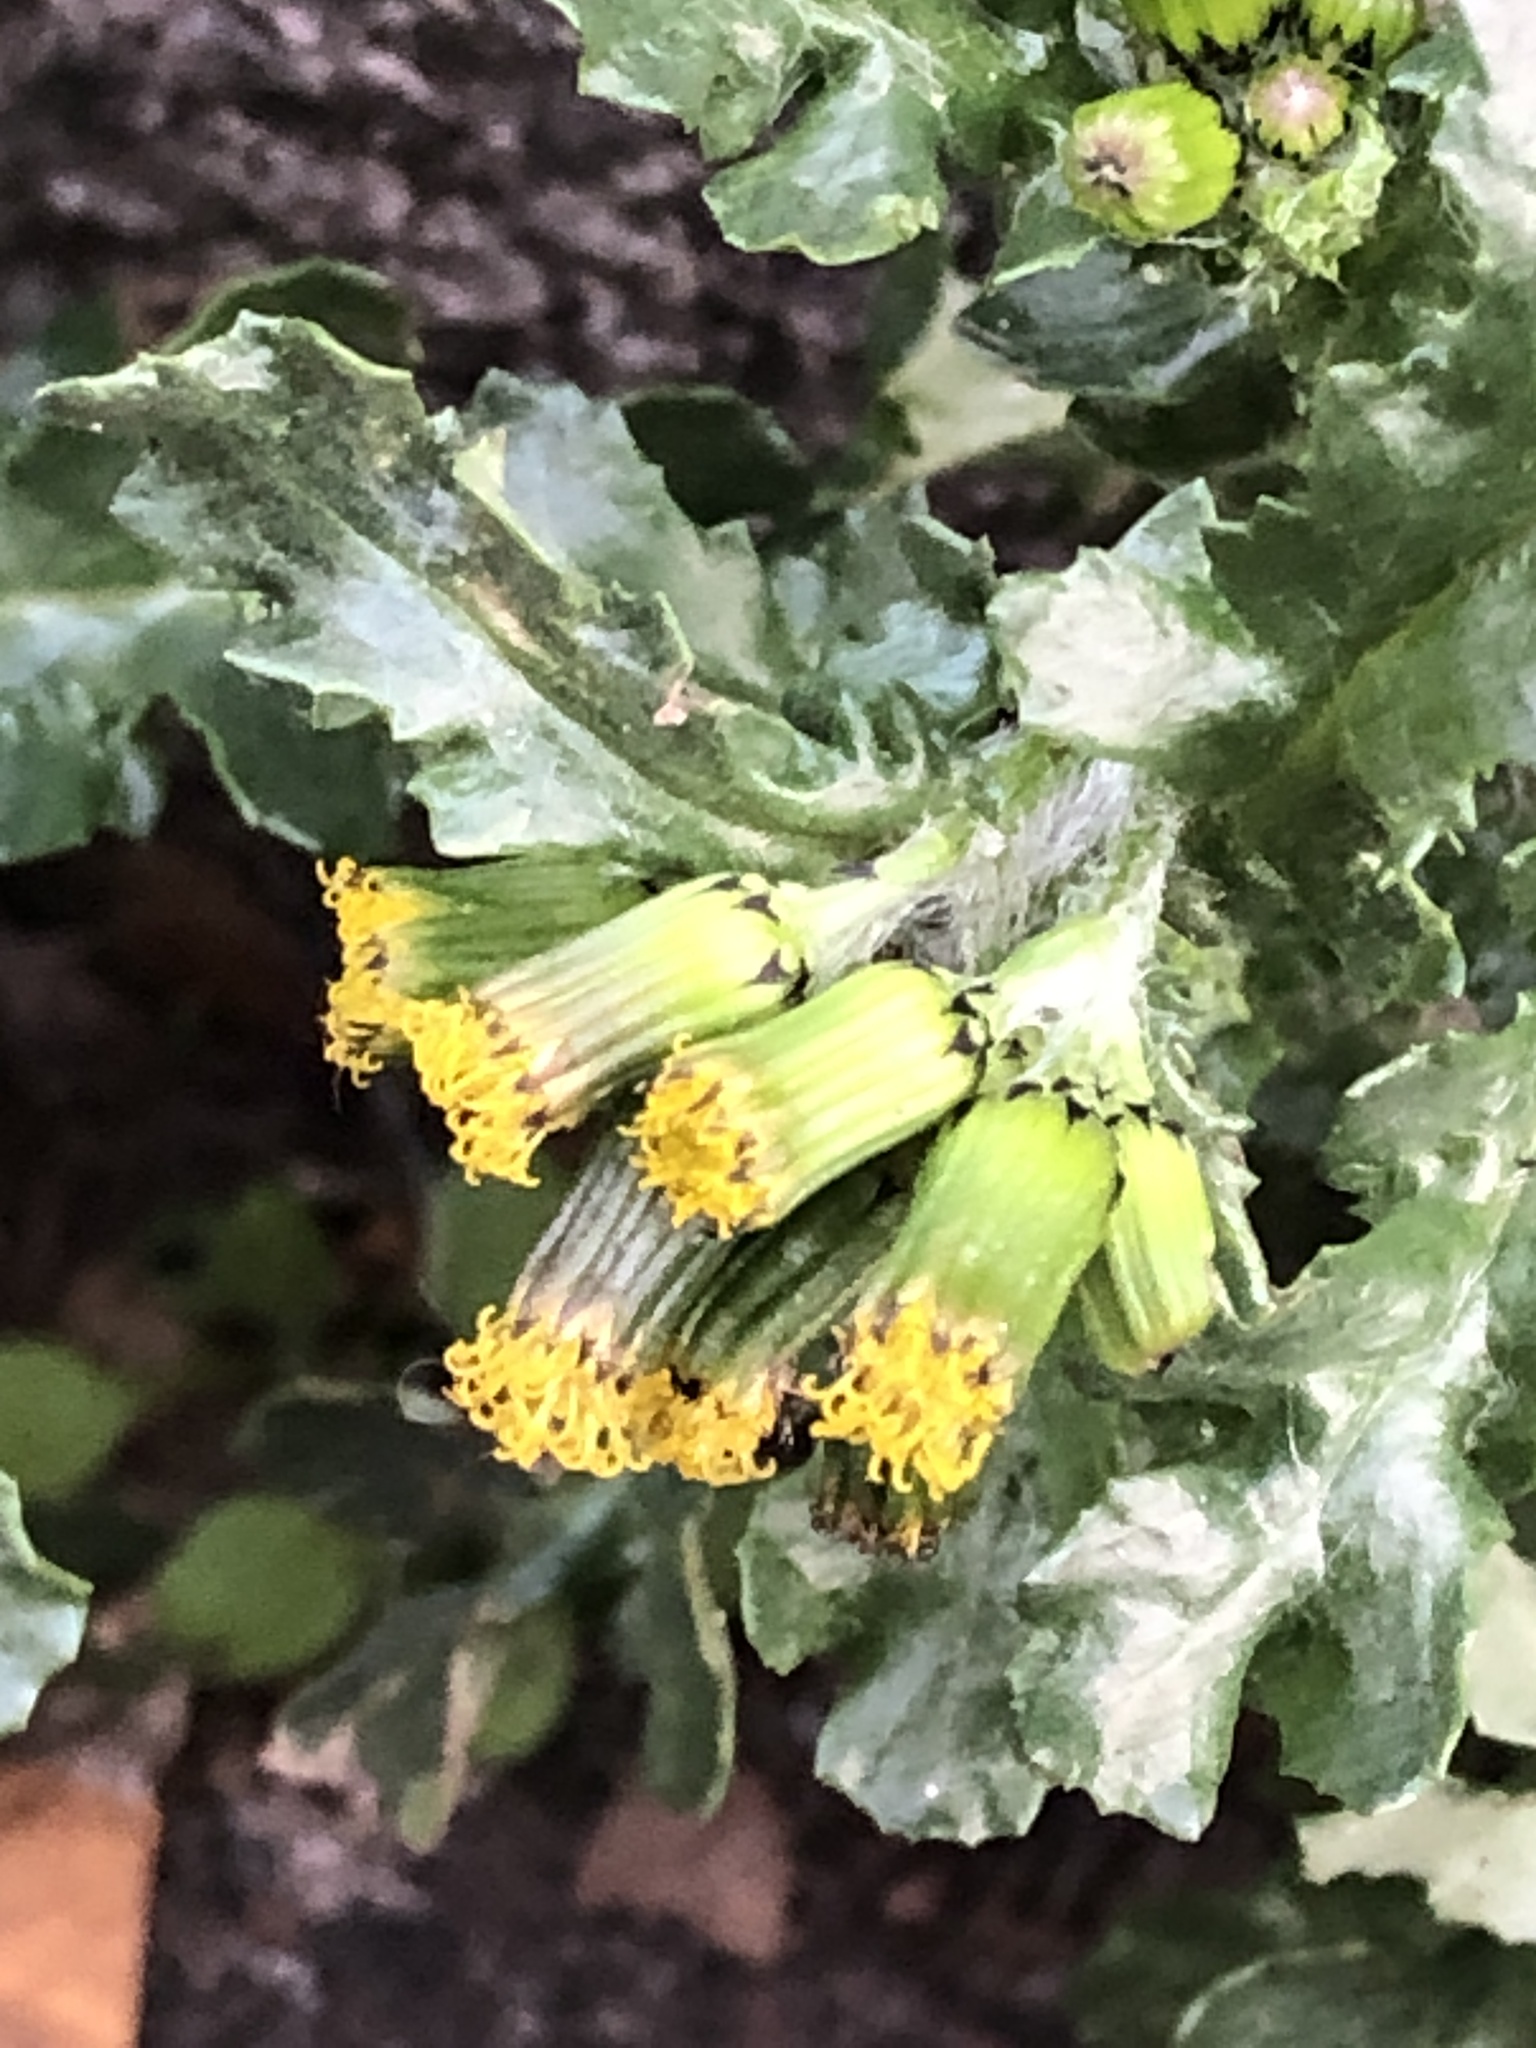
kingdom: Plantae
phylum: Tracheophyta
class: Magnoliopsida
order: Asterales
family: Asteraceae
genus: Senecio
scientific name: Senecio vulgaris
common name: Old-man-in-the-spring
